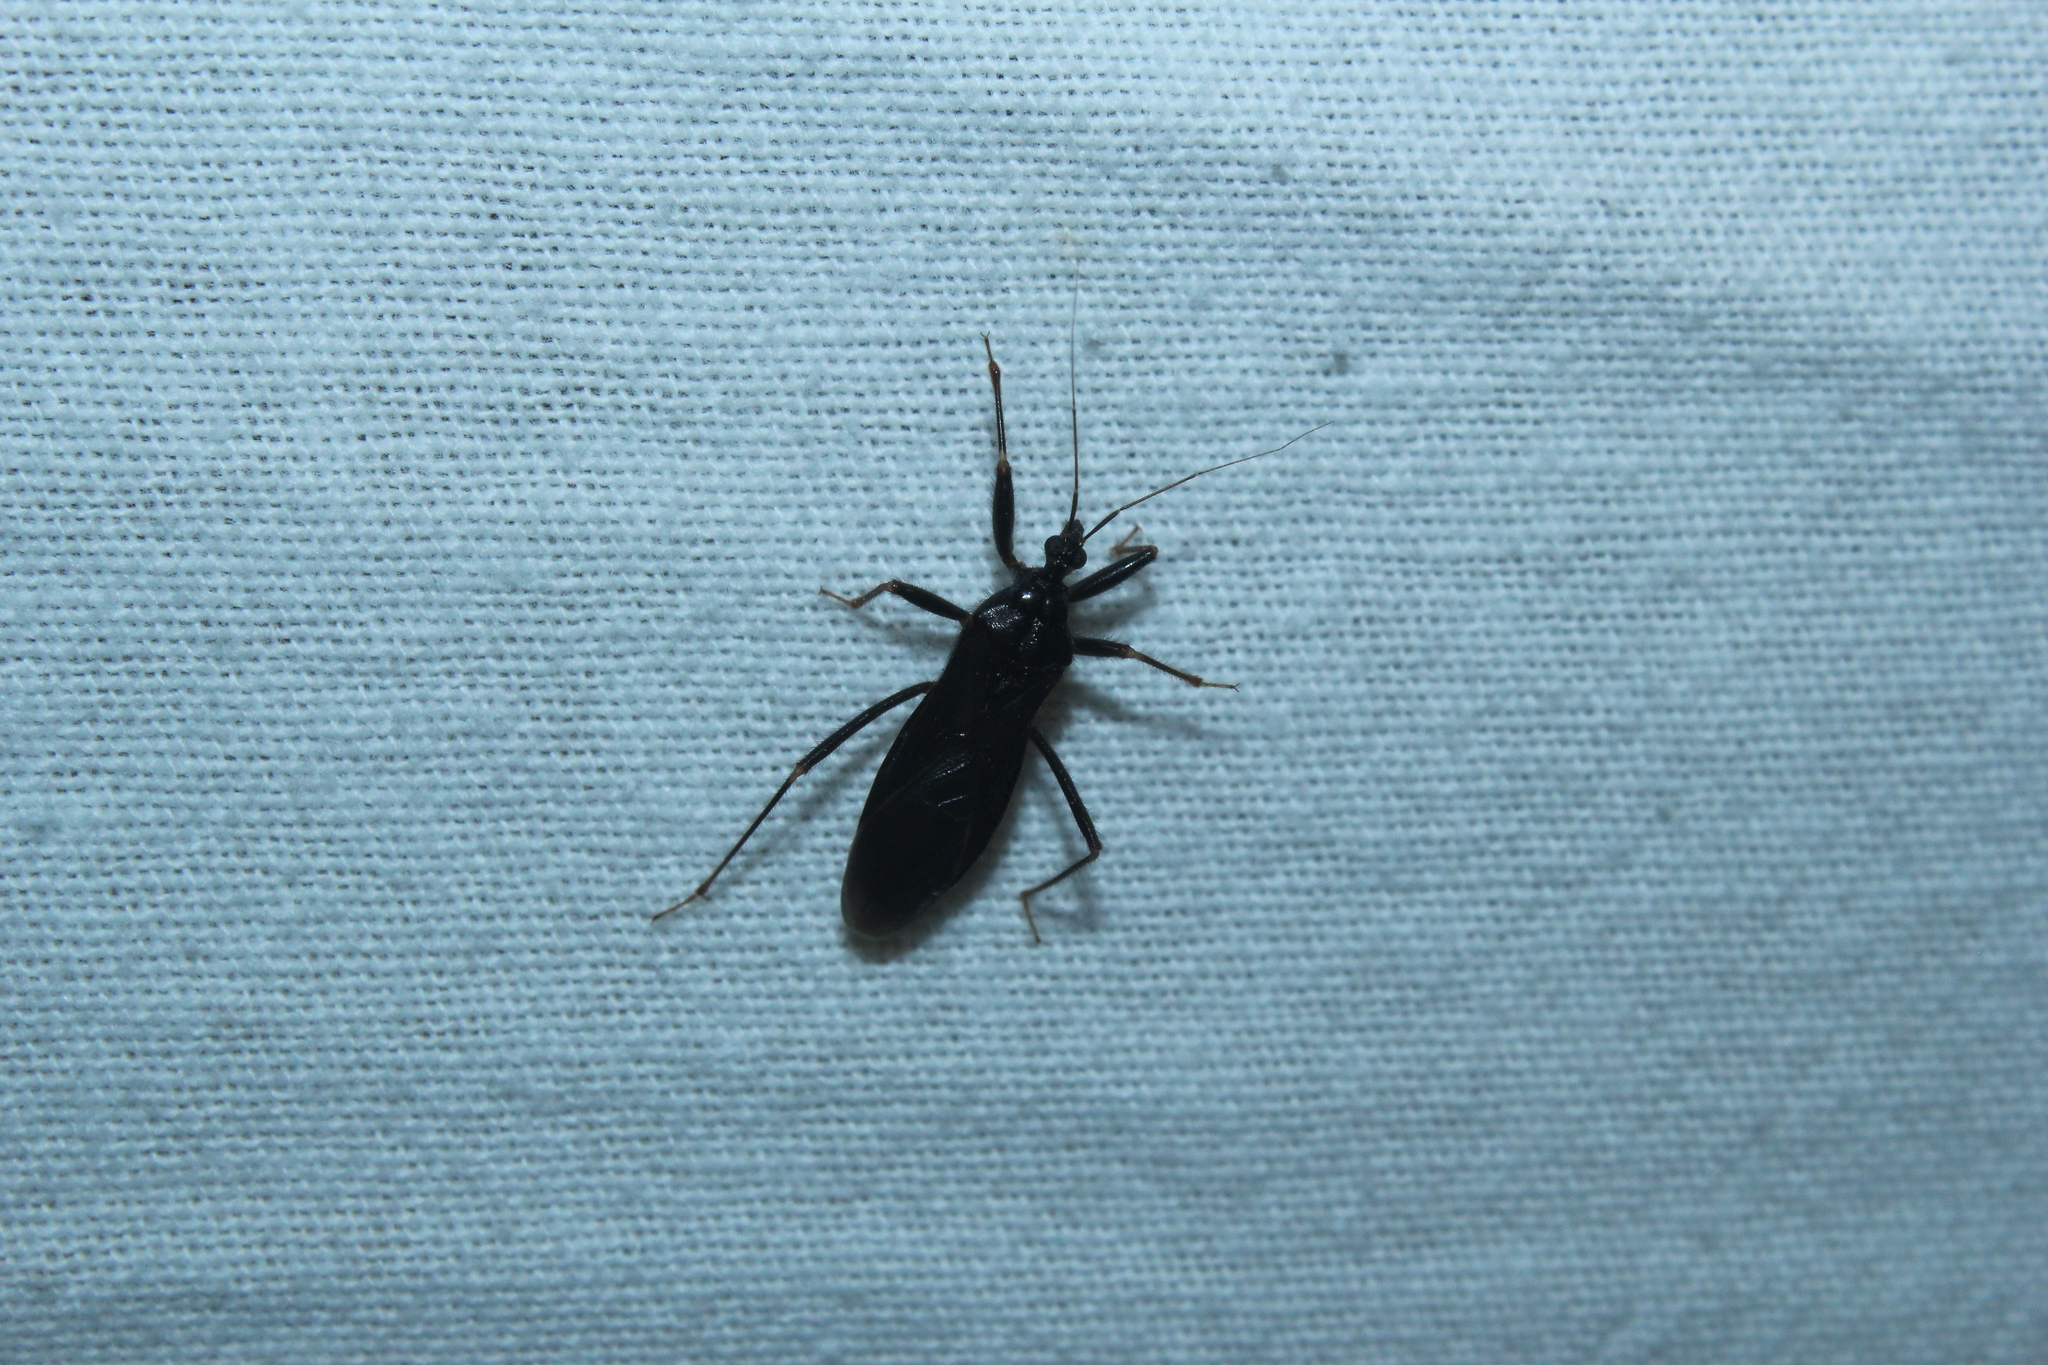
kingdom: Animalia
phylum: Arthropoda
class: Insecta
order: Hemiptera
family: Reduviidae
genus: Reduvius
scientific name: Reduvius personatus
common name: Masked hunter
